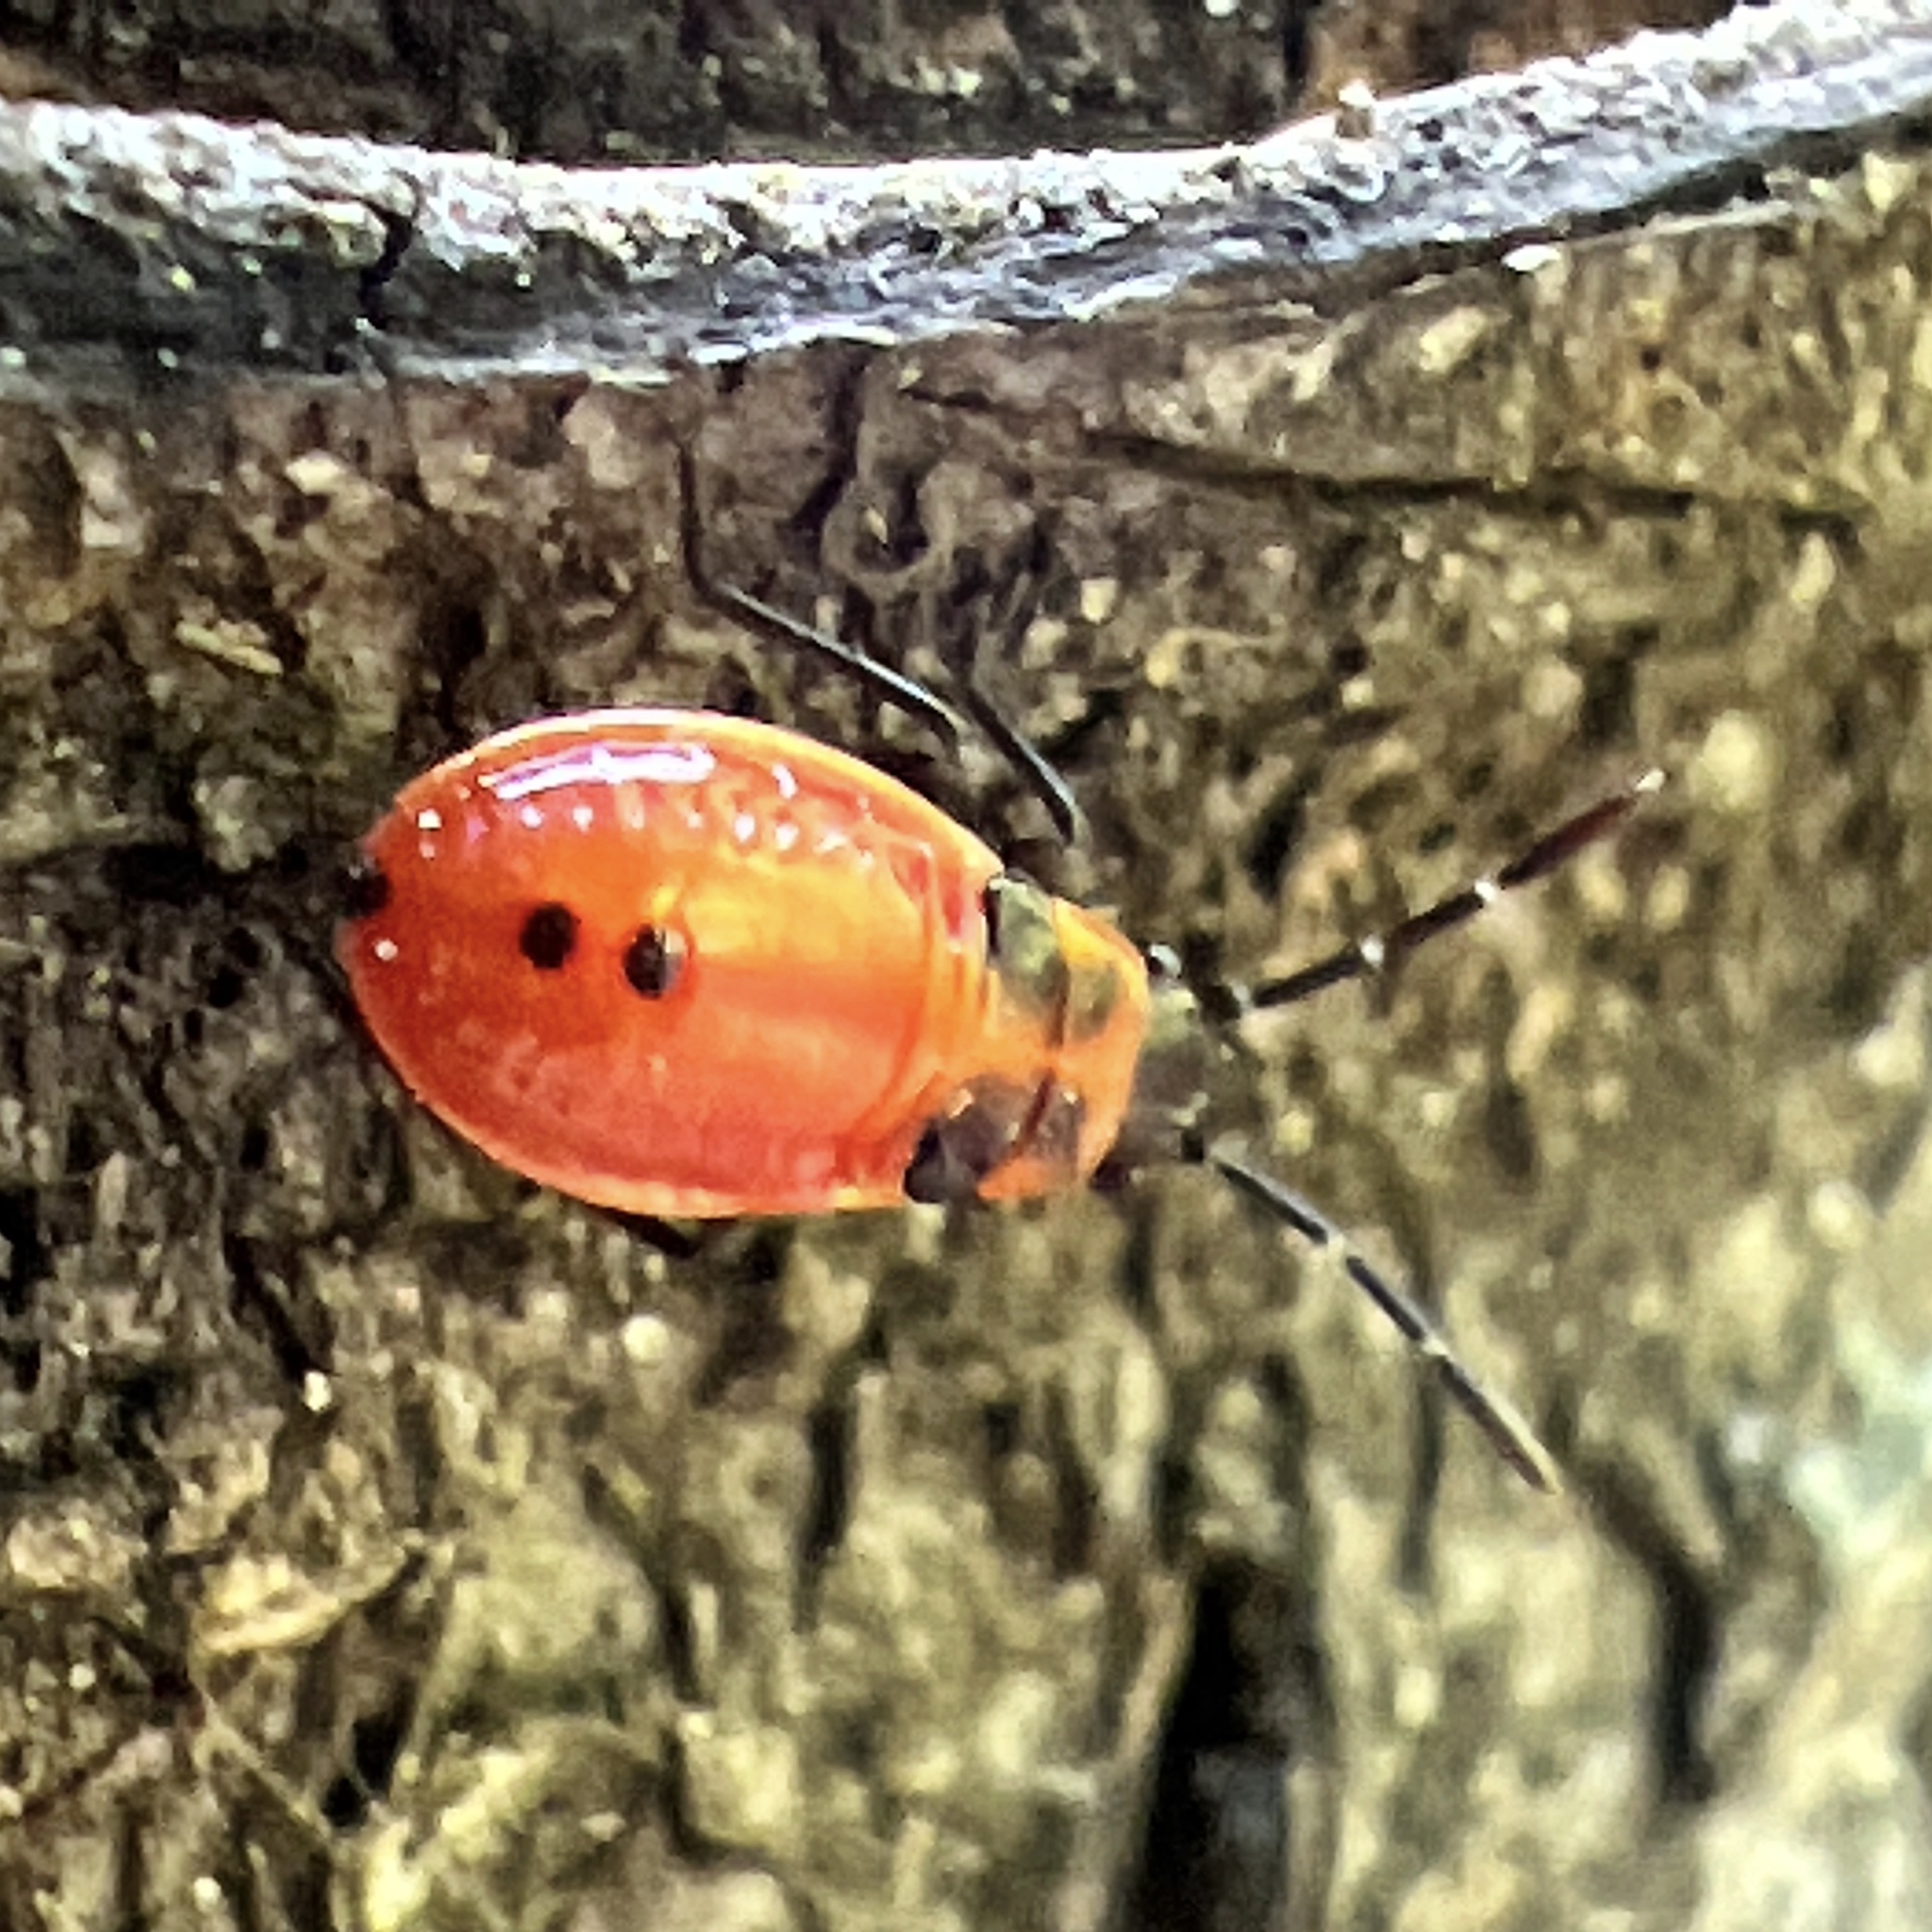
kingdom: Animalia
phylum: Arthropoda
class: Insecta
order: Hemiptera
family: Lygaeidae
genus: Lygaeus
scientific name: Lygaeus turcicus
